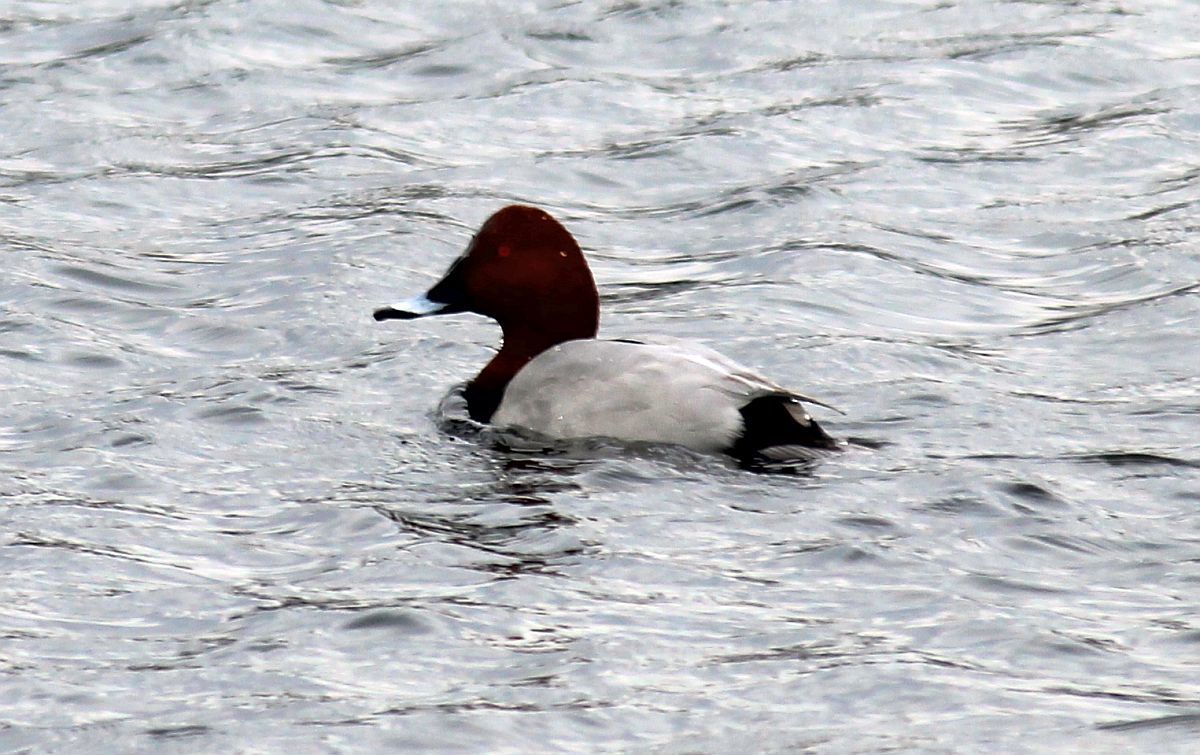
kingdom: Animalia
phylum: Chordata
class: Aves
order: Anseriformes
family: Anatidae
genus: Aythya
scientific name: Aythya ferina
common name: Common pochard
